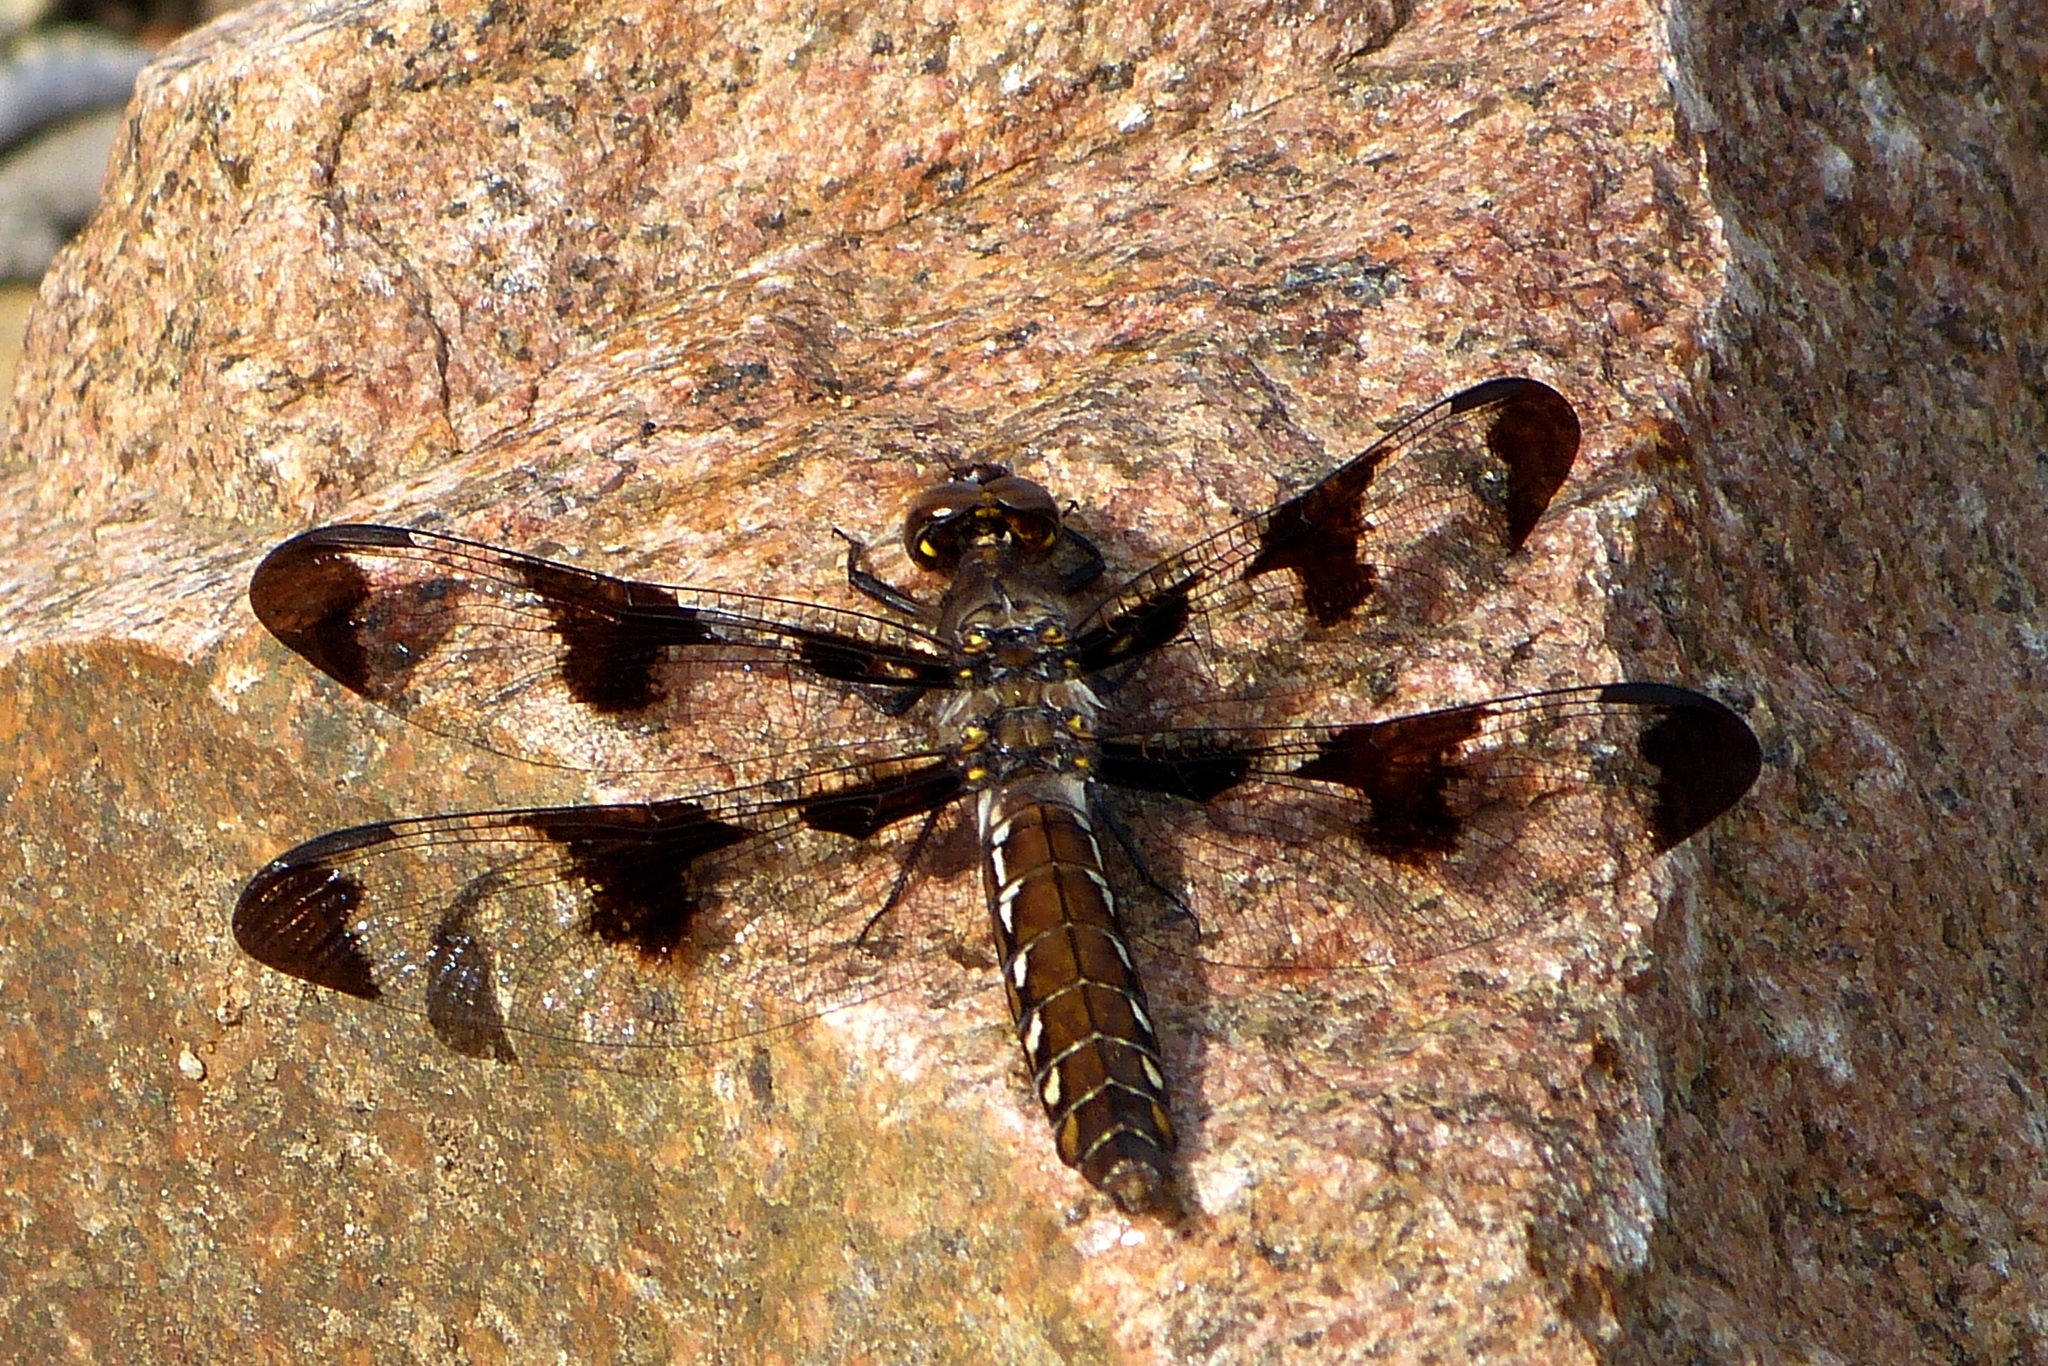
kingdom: Animalia
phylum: Arthropoda
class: Insecta
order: Odonata
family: Libellulidae
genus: Plathemis
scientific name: Plathemis lydia
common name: Common whitetail
